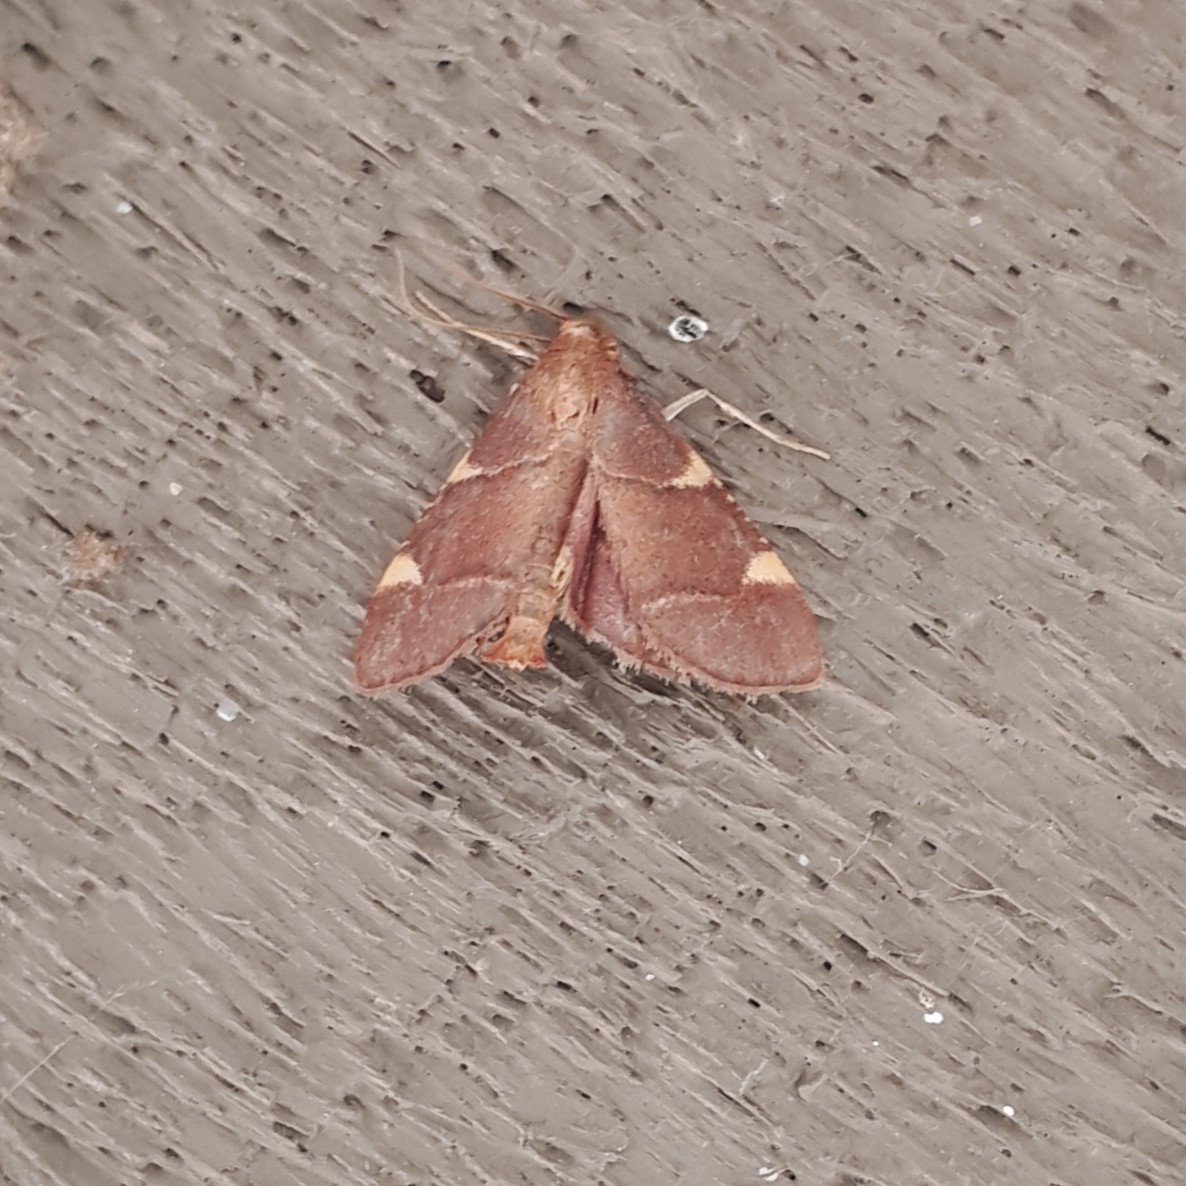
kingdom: Animalia
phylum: Arthropoda
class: Insecta
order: Lepidoptera
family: Pyralidae
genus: Hypsopygia
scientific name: Hypsopygia olinalis
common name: Yellow-fringed dolichomia moth
